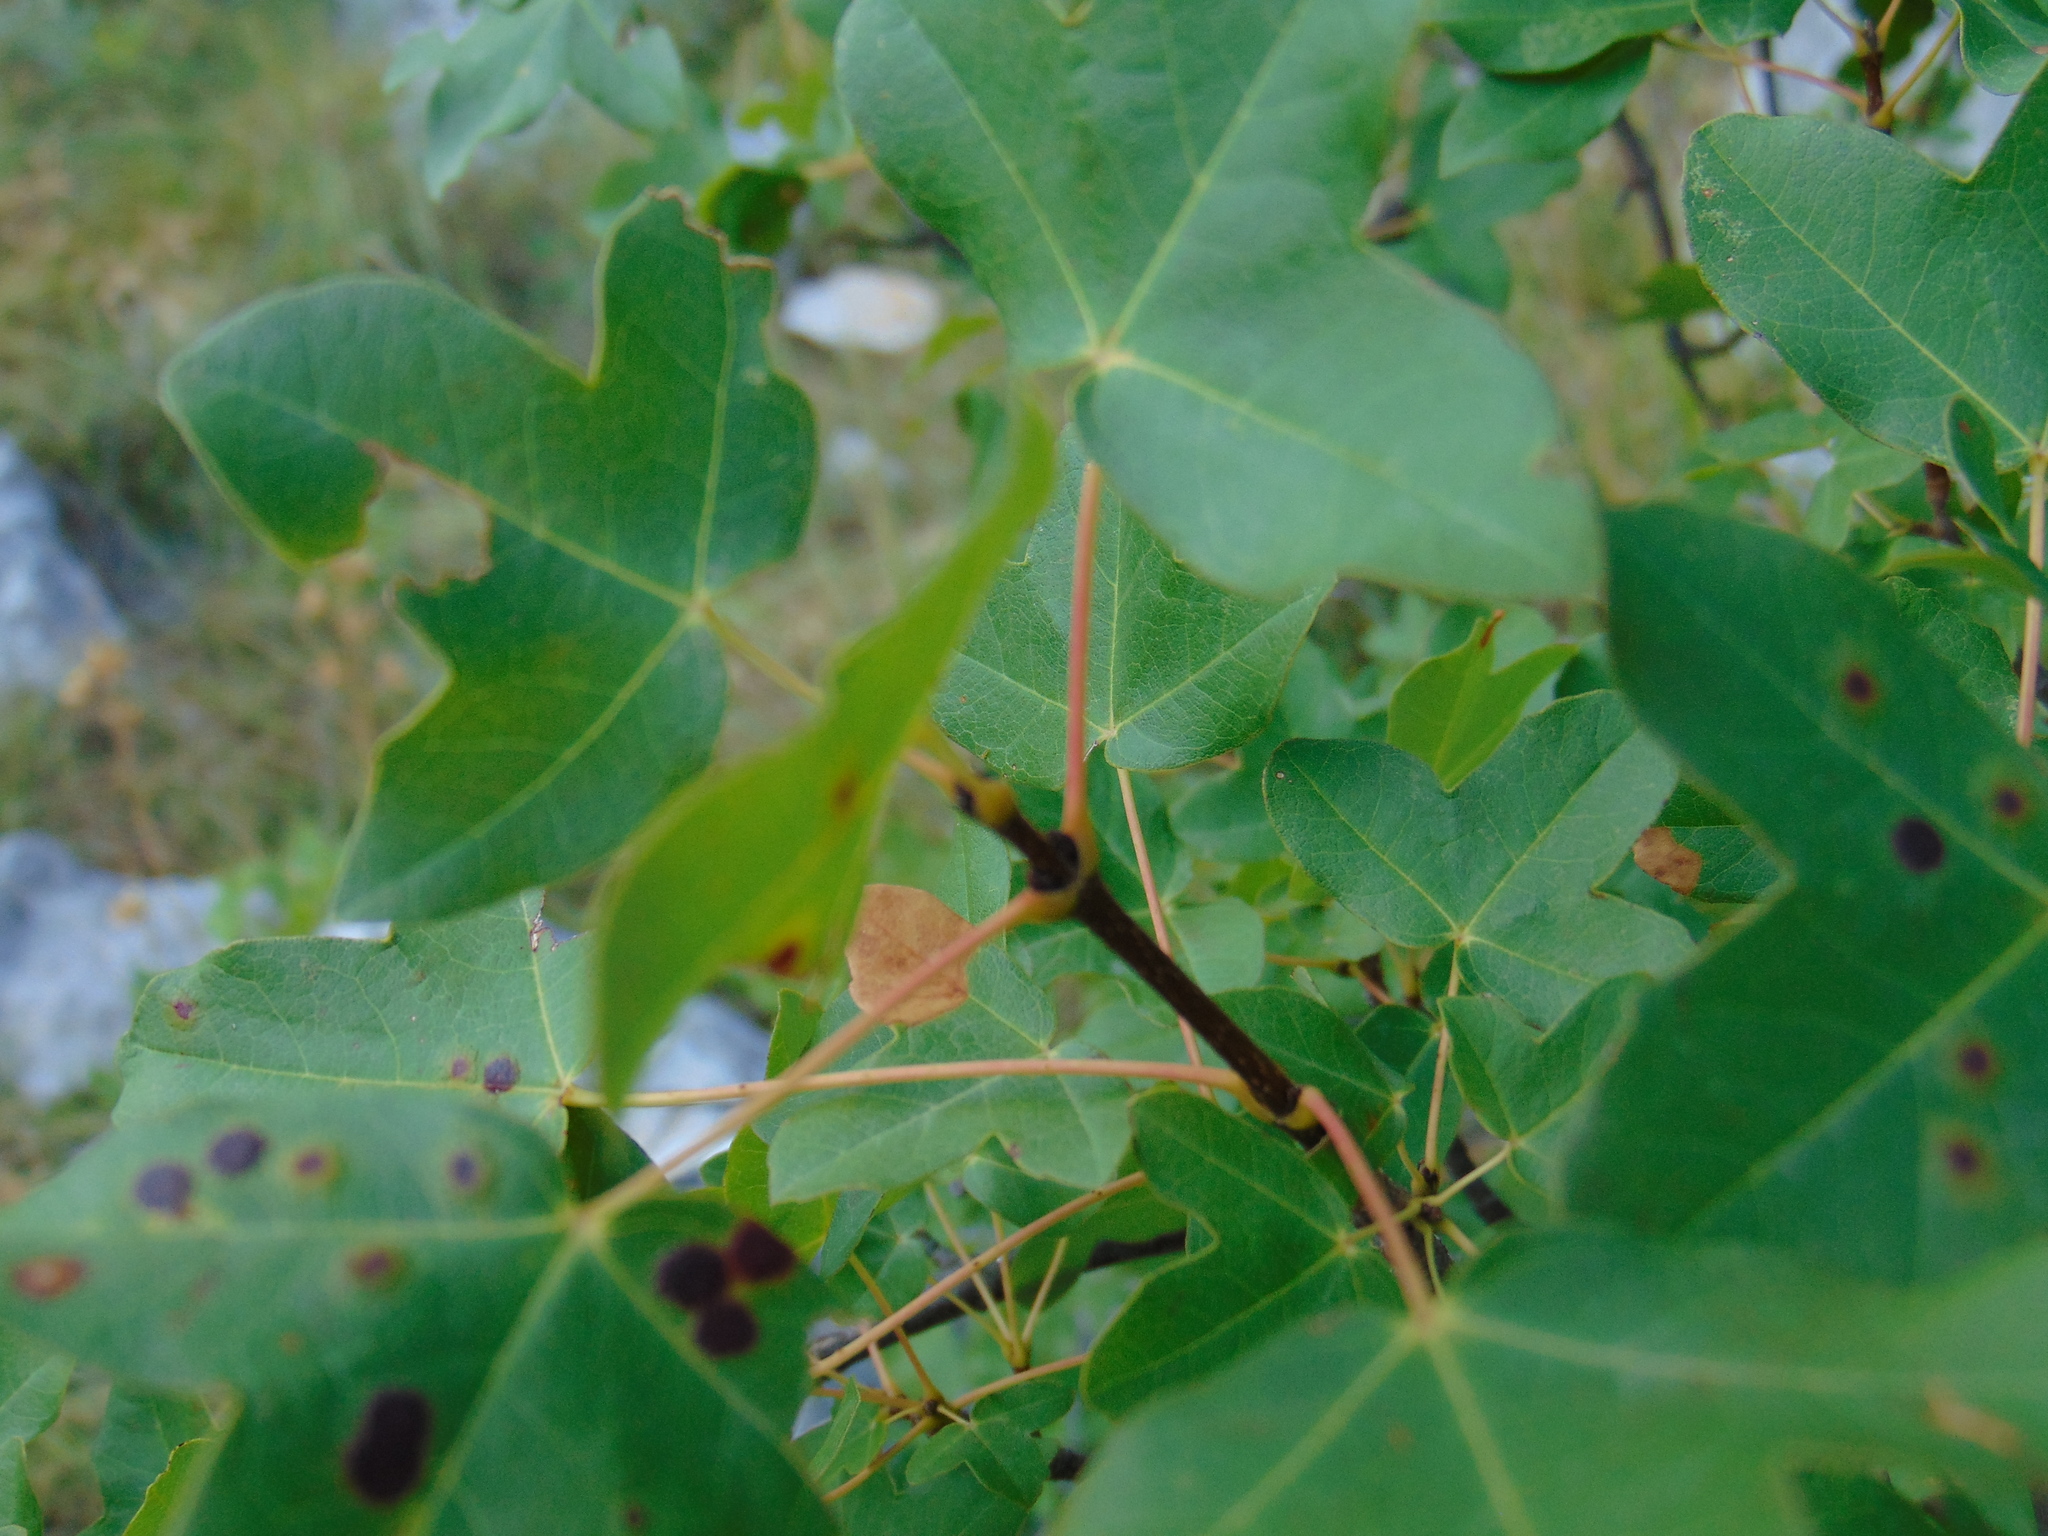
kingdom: Plantae
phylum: Tracheophyta
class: Magnoliopsida
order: Sapindales
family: Sapindaceae
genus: Acer
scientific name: Acer monspessulanum
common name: Montpellier maple
